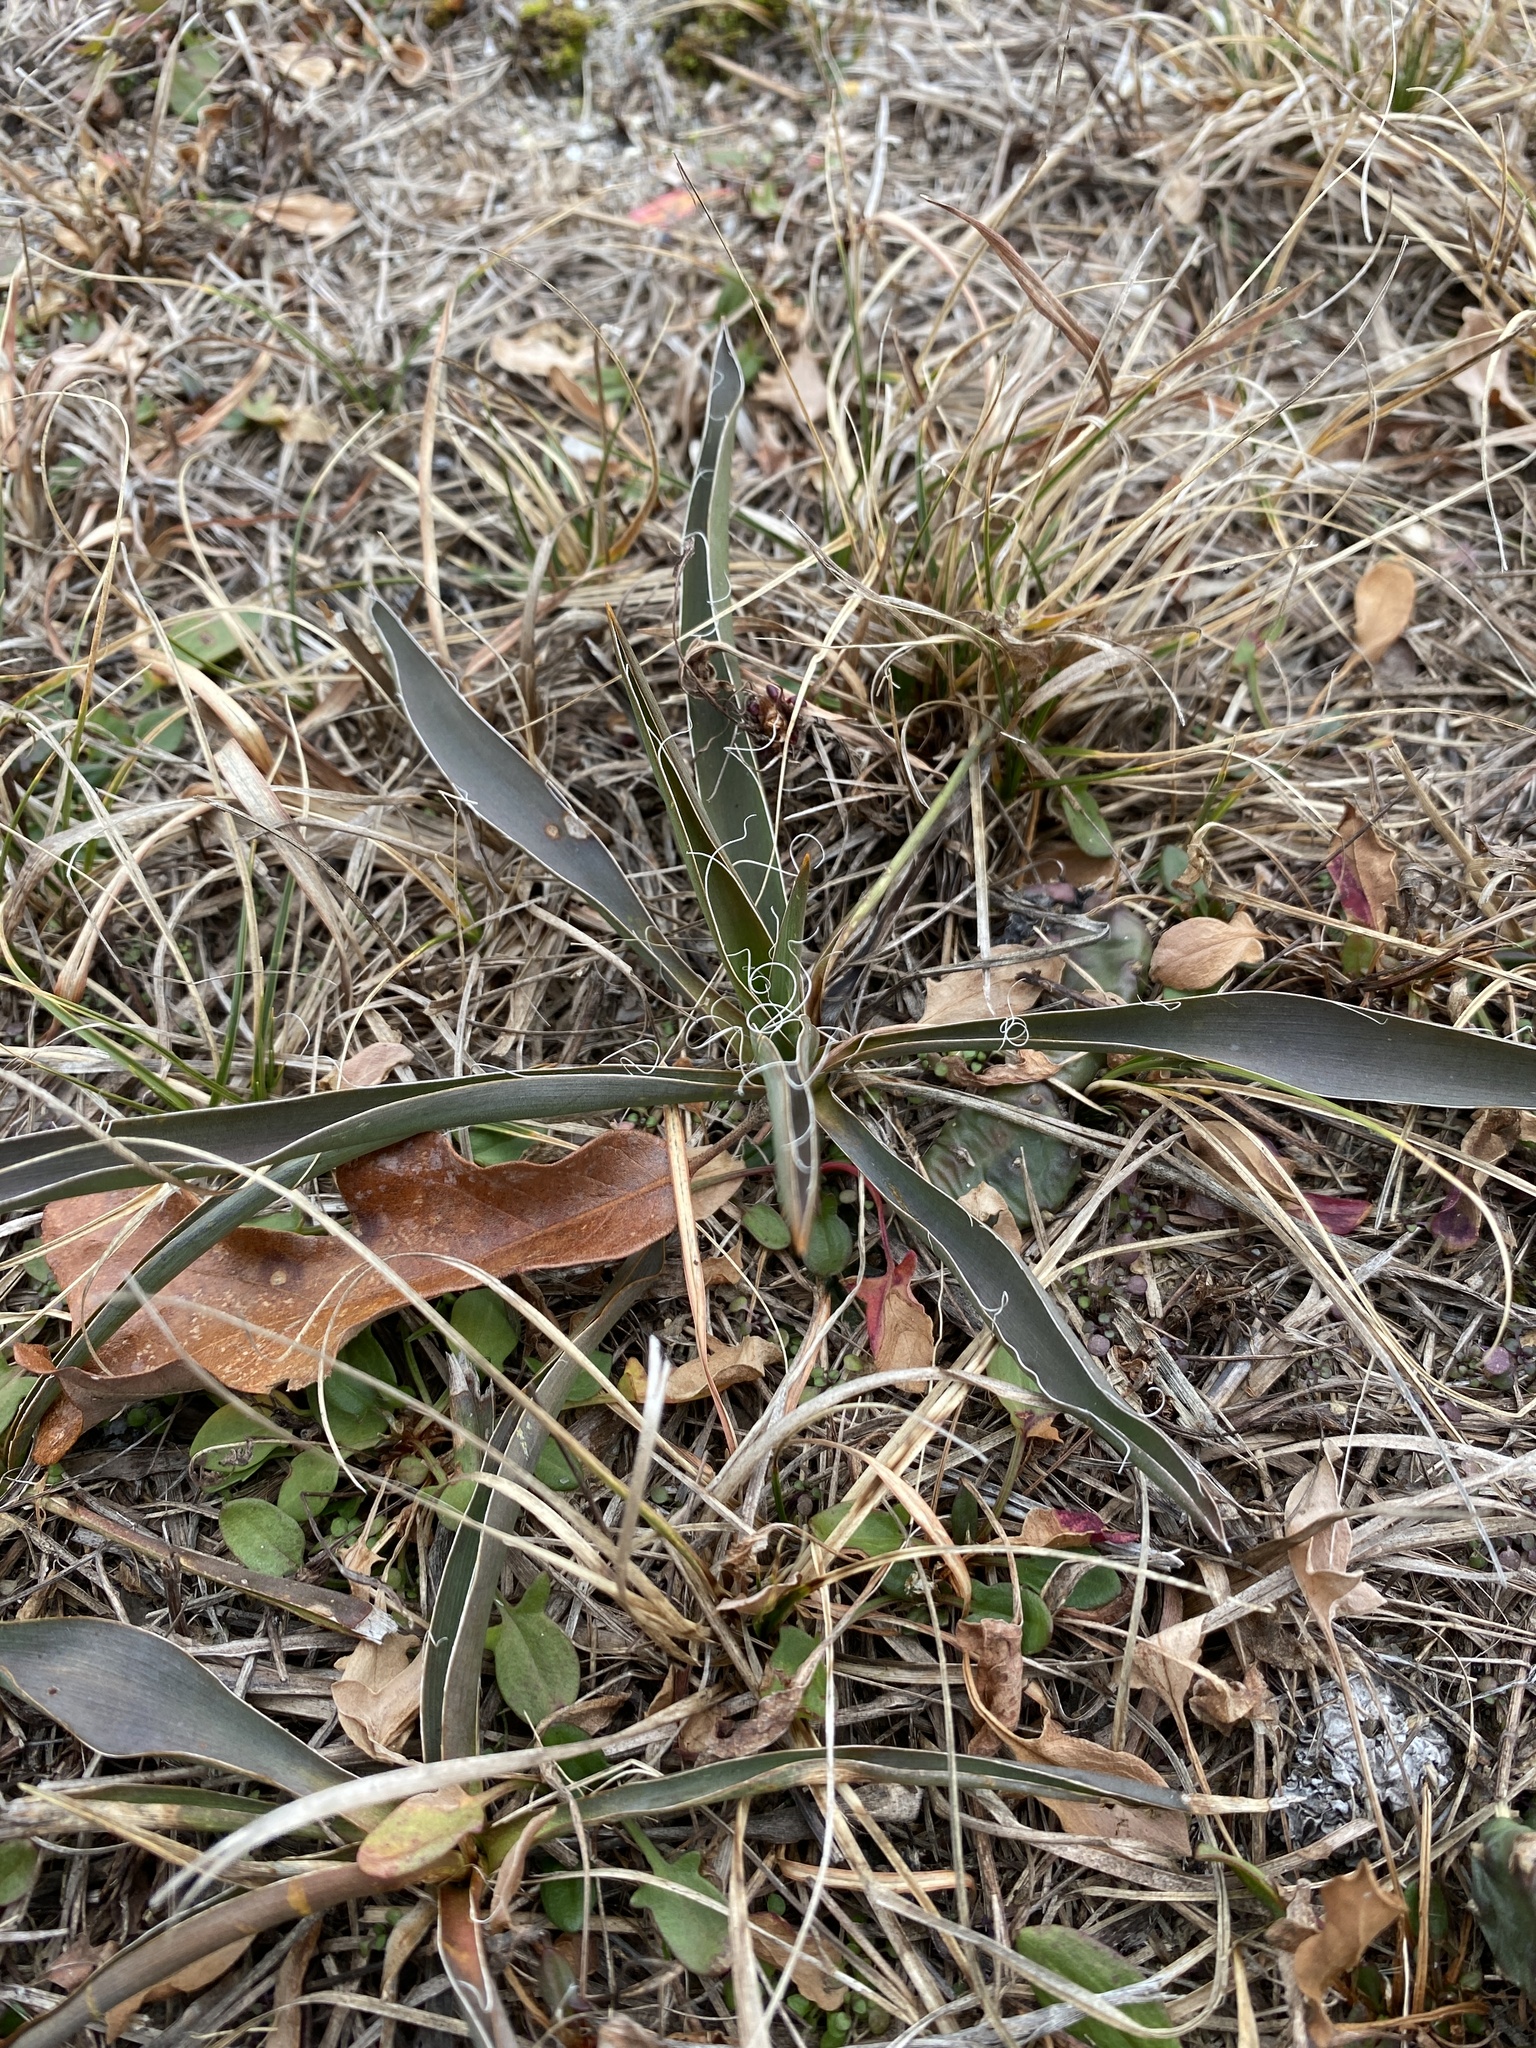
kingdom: Plantae
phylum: Tracheophyta
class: Liliopsida
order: Asparagales
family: Asparagaceae
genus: Yucca
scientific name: Yucca filamentosa
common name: Adam's-needle
